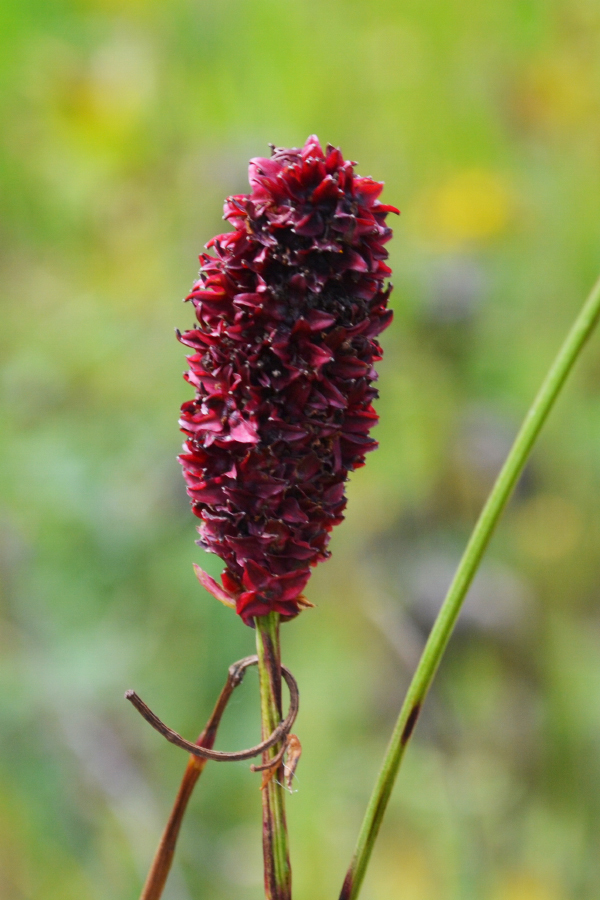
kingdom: Plantae
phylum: Tracheophyta
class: Magnoliopsida
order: Rosales
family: Rosaceae
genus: Sanguisorba
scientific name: Sanguisorba officinalis
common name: Great burnet
